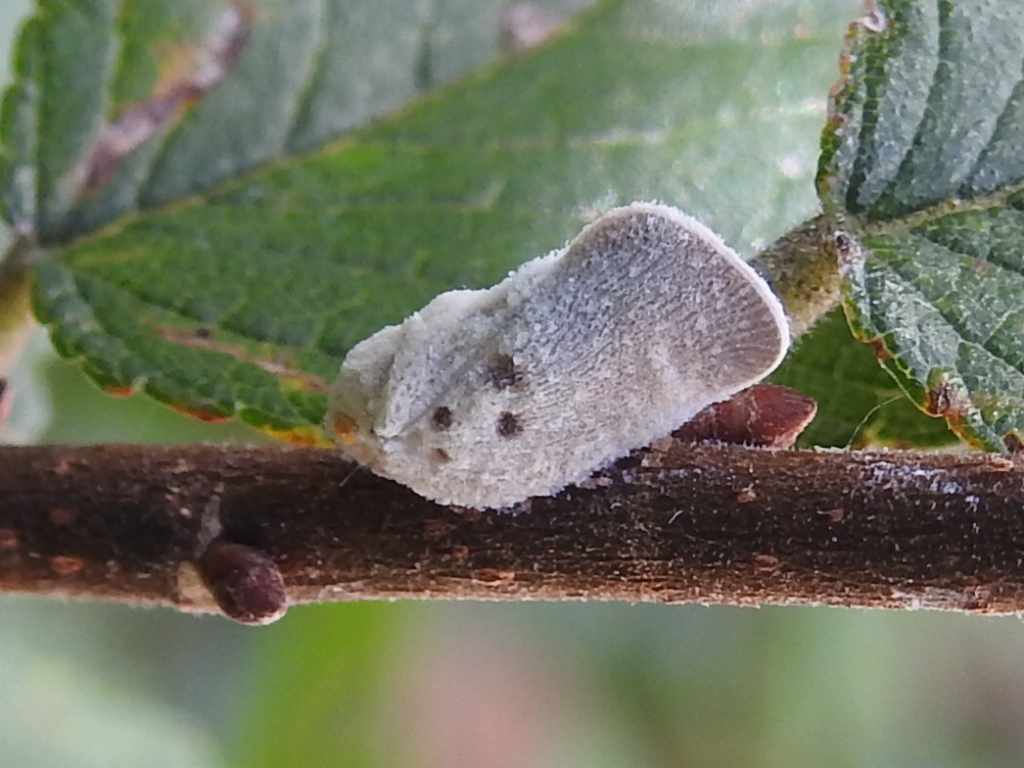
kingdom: Animalia
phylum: Arthropoda
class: Insecta
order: Hemiptera
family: Flatidae
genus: Metcalfa
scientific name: Metcalfa pruinosa
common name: Citrus flatid planthopper
